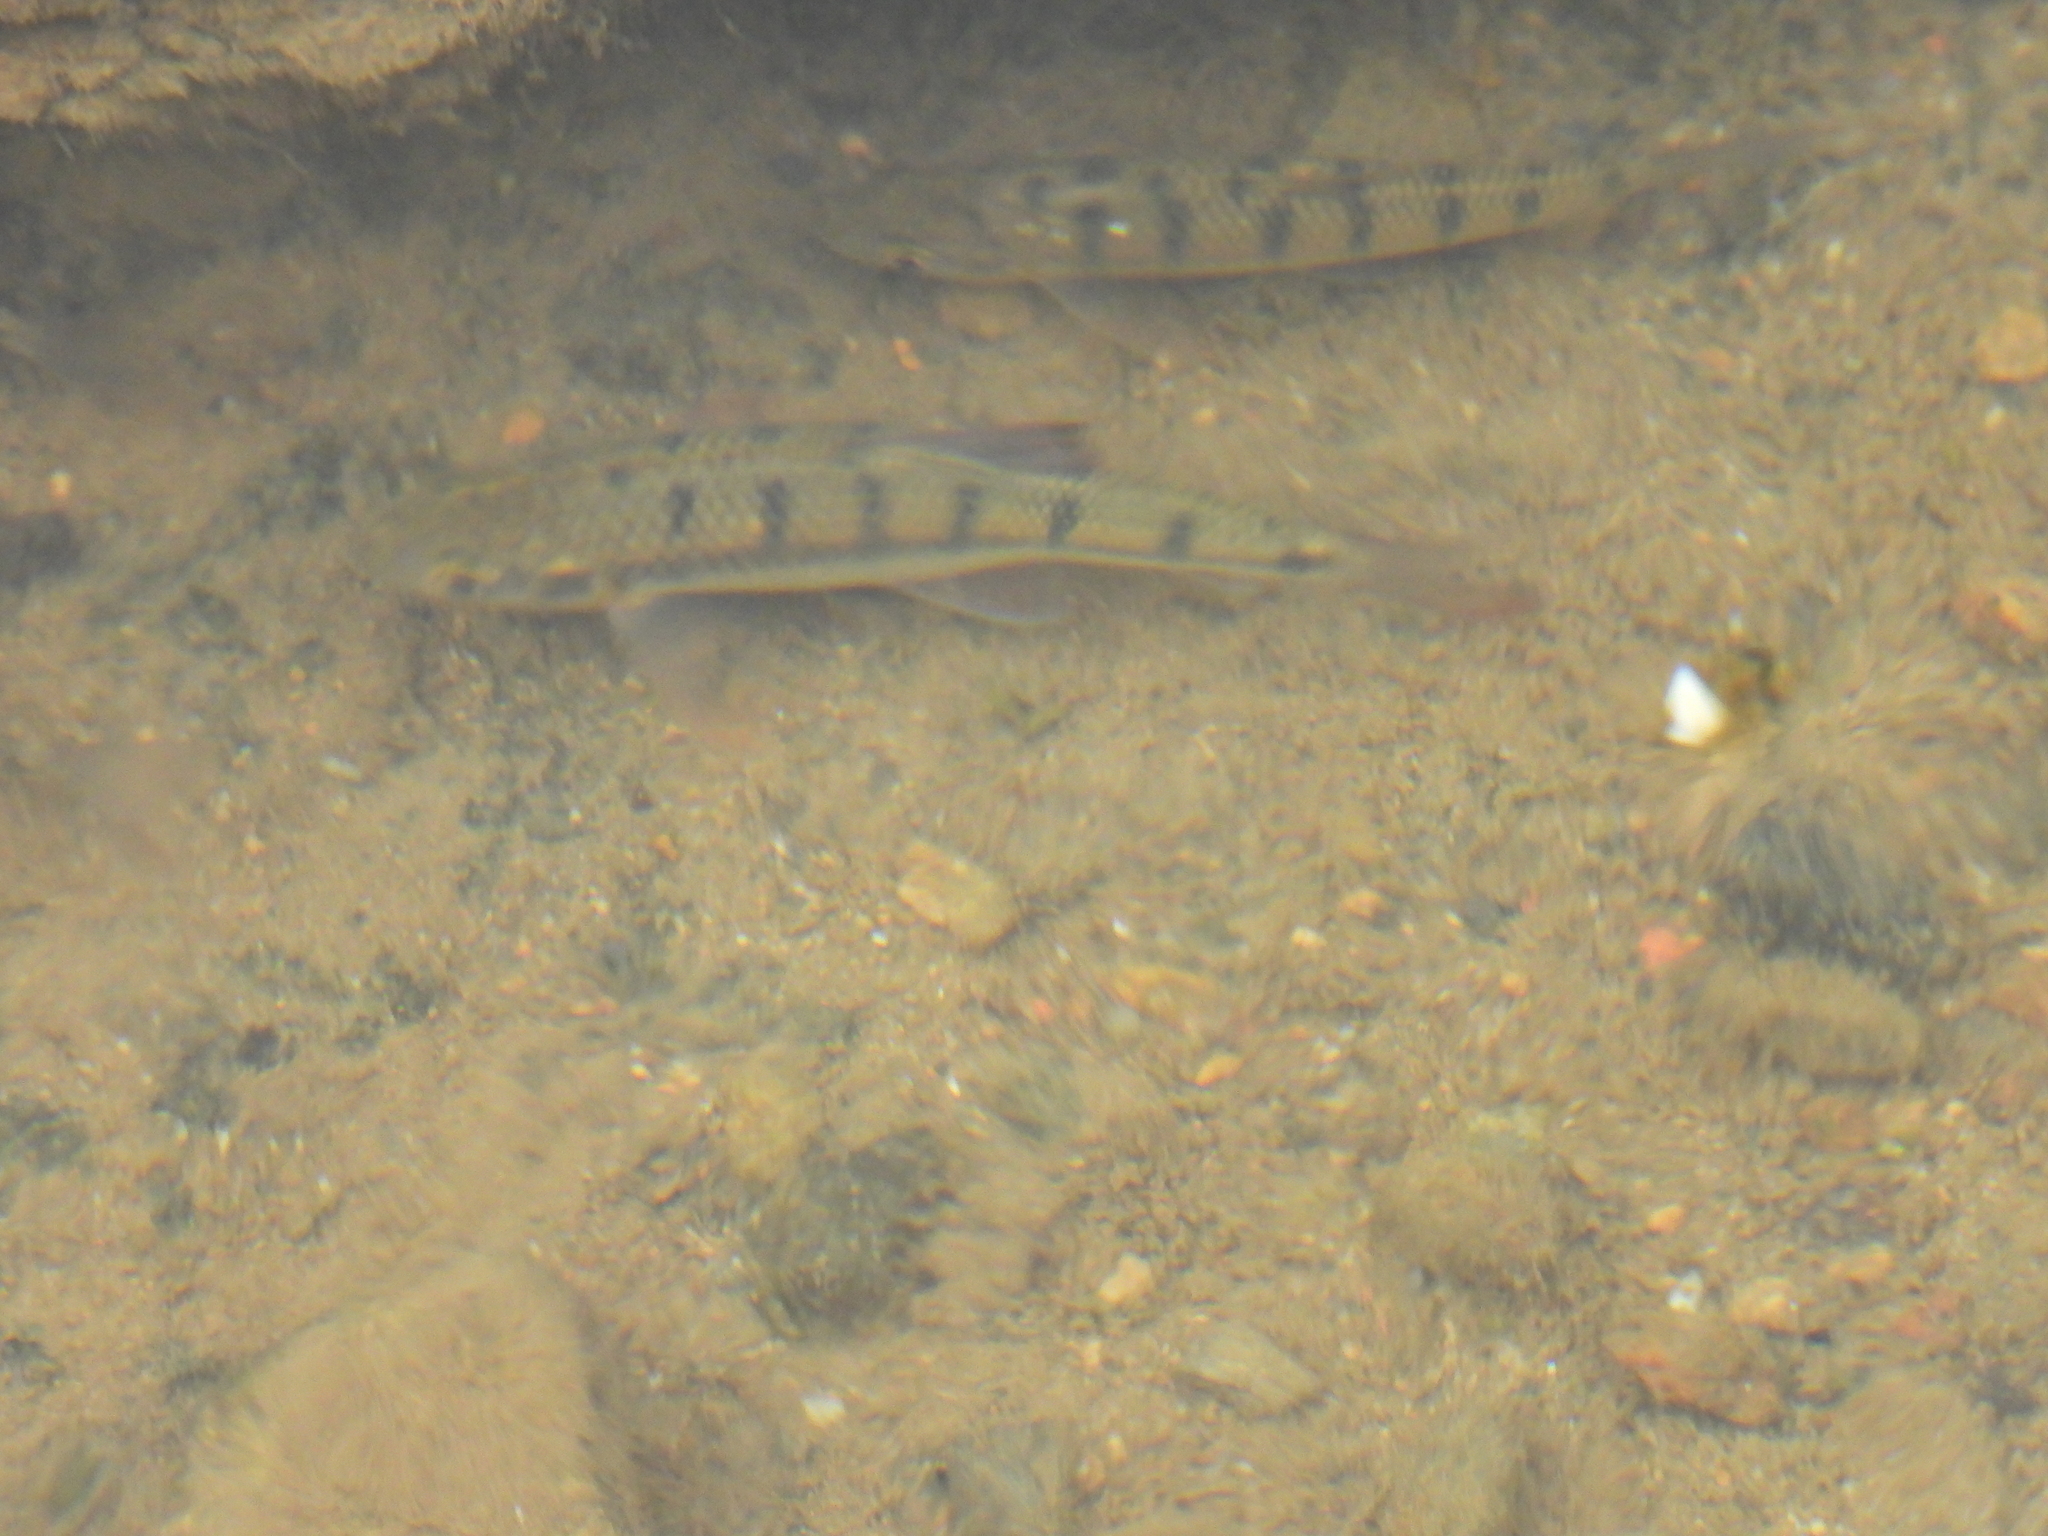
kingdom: Animalia
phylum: Chordata
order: Cypriniformes
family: Cyprinidae
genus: Acrossocheilus
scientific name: Acrossocheilus paradoxus
